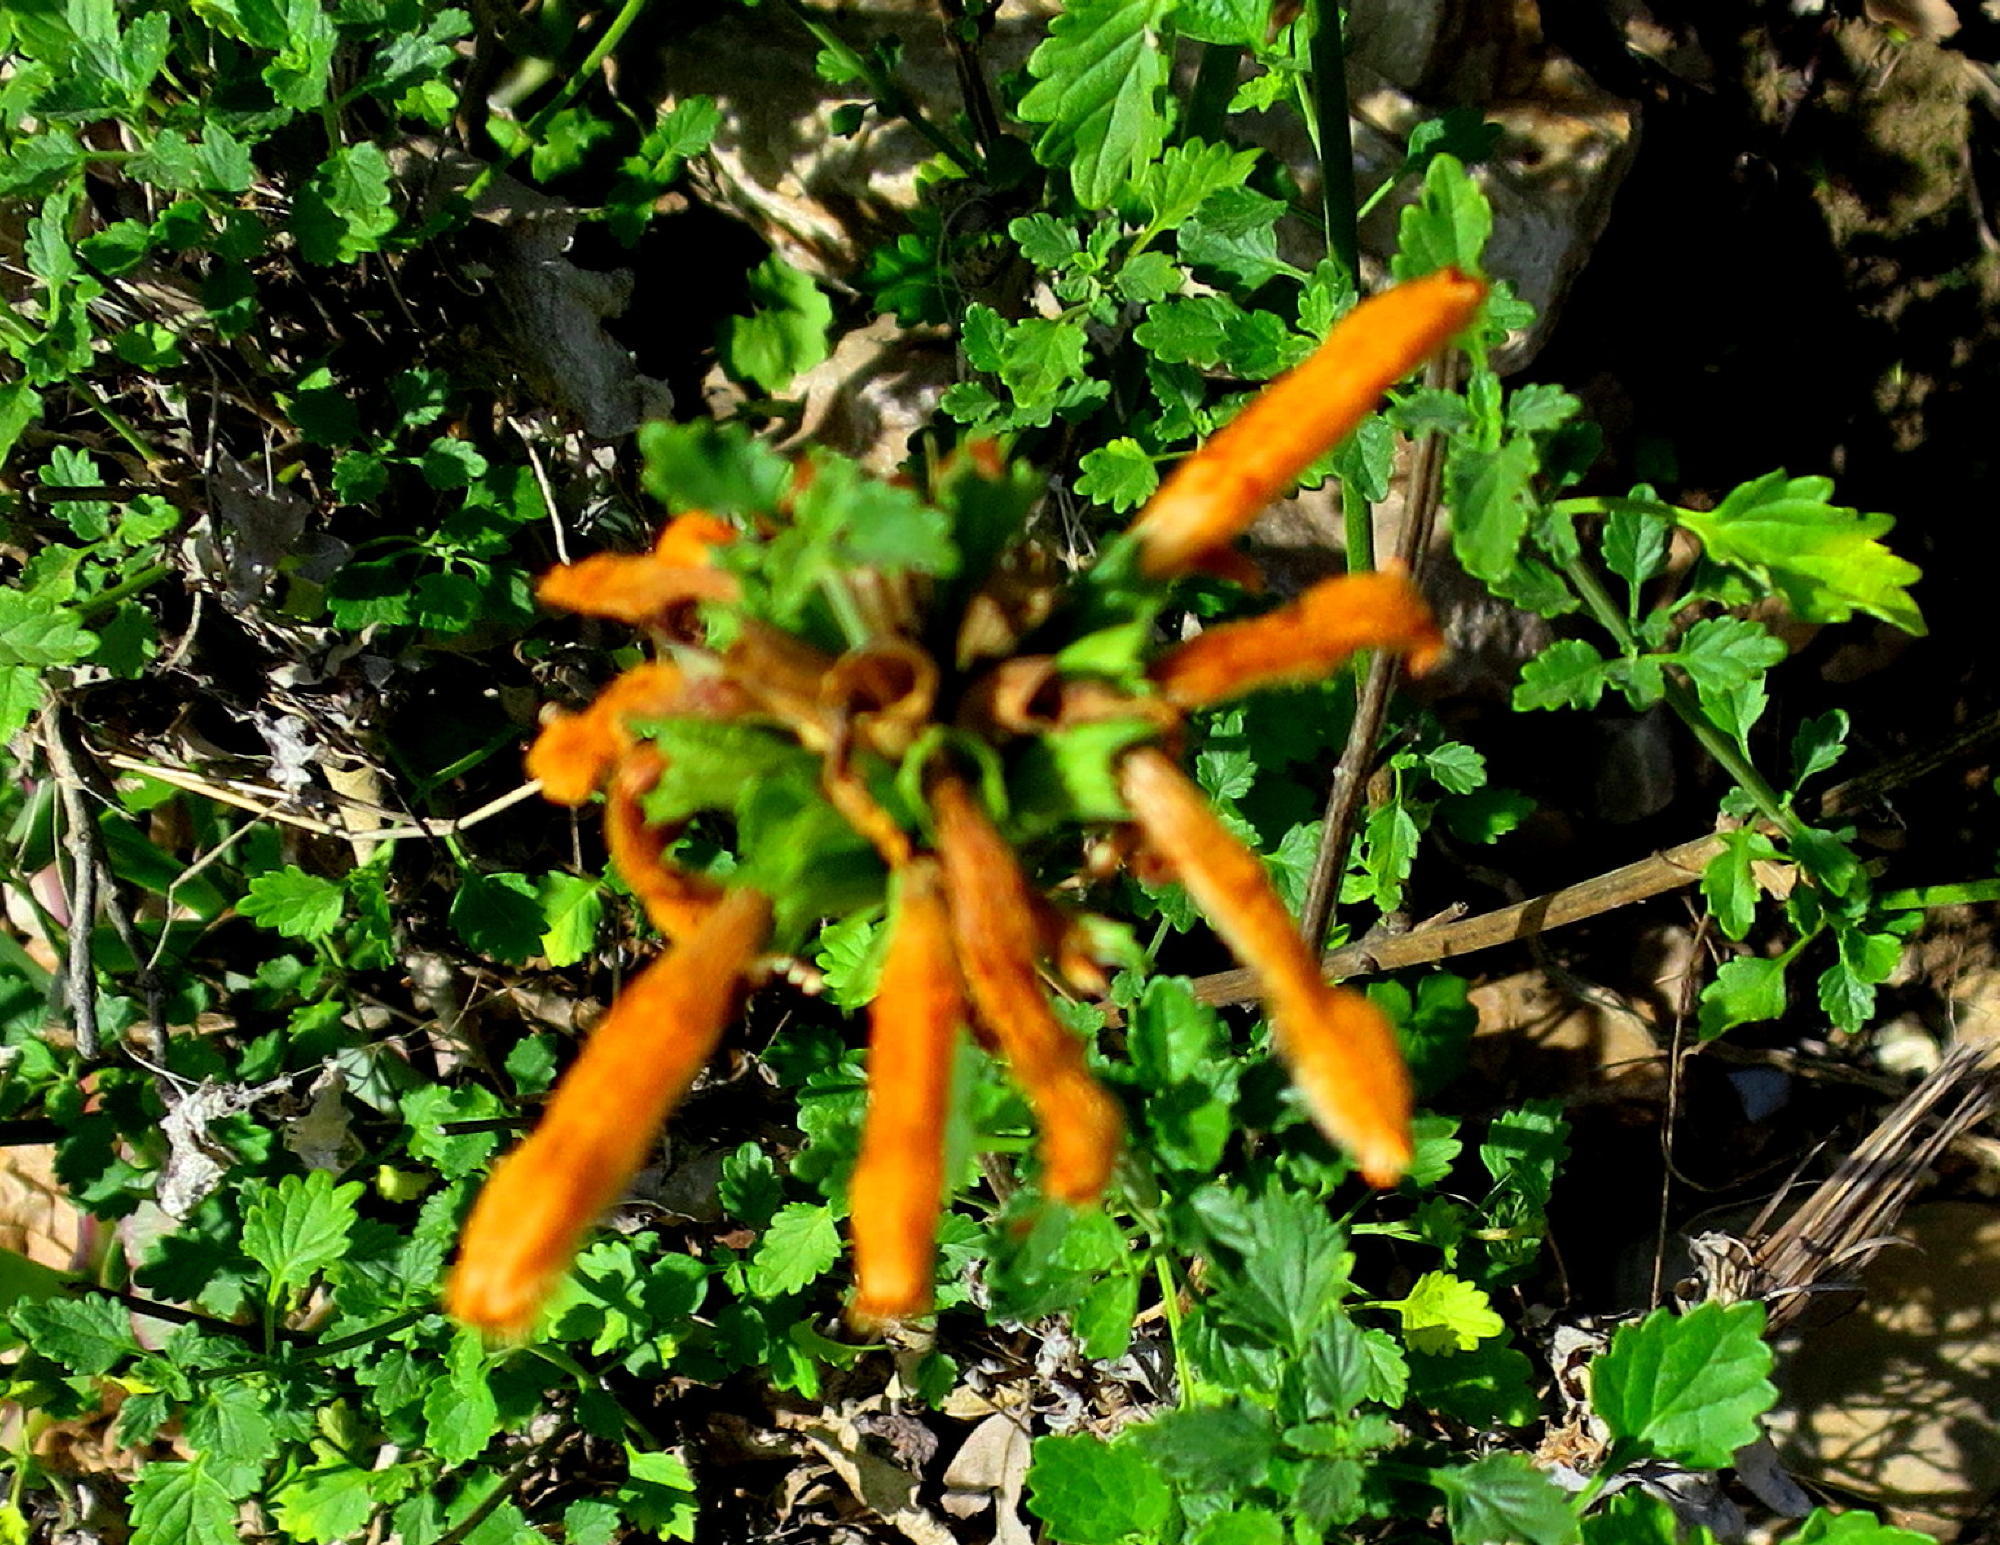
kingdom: Plantae
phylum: Tracheophyta
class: Magnoliopsida
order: Lamiales
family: Lamiaceae
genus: Leonotis
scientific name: Leonotis ocymifolia
